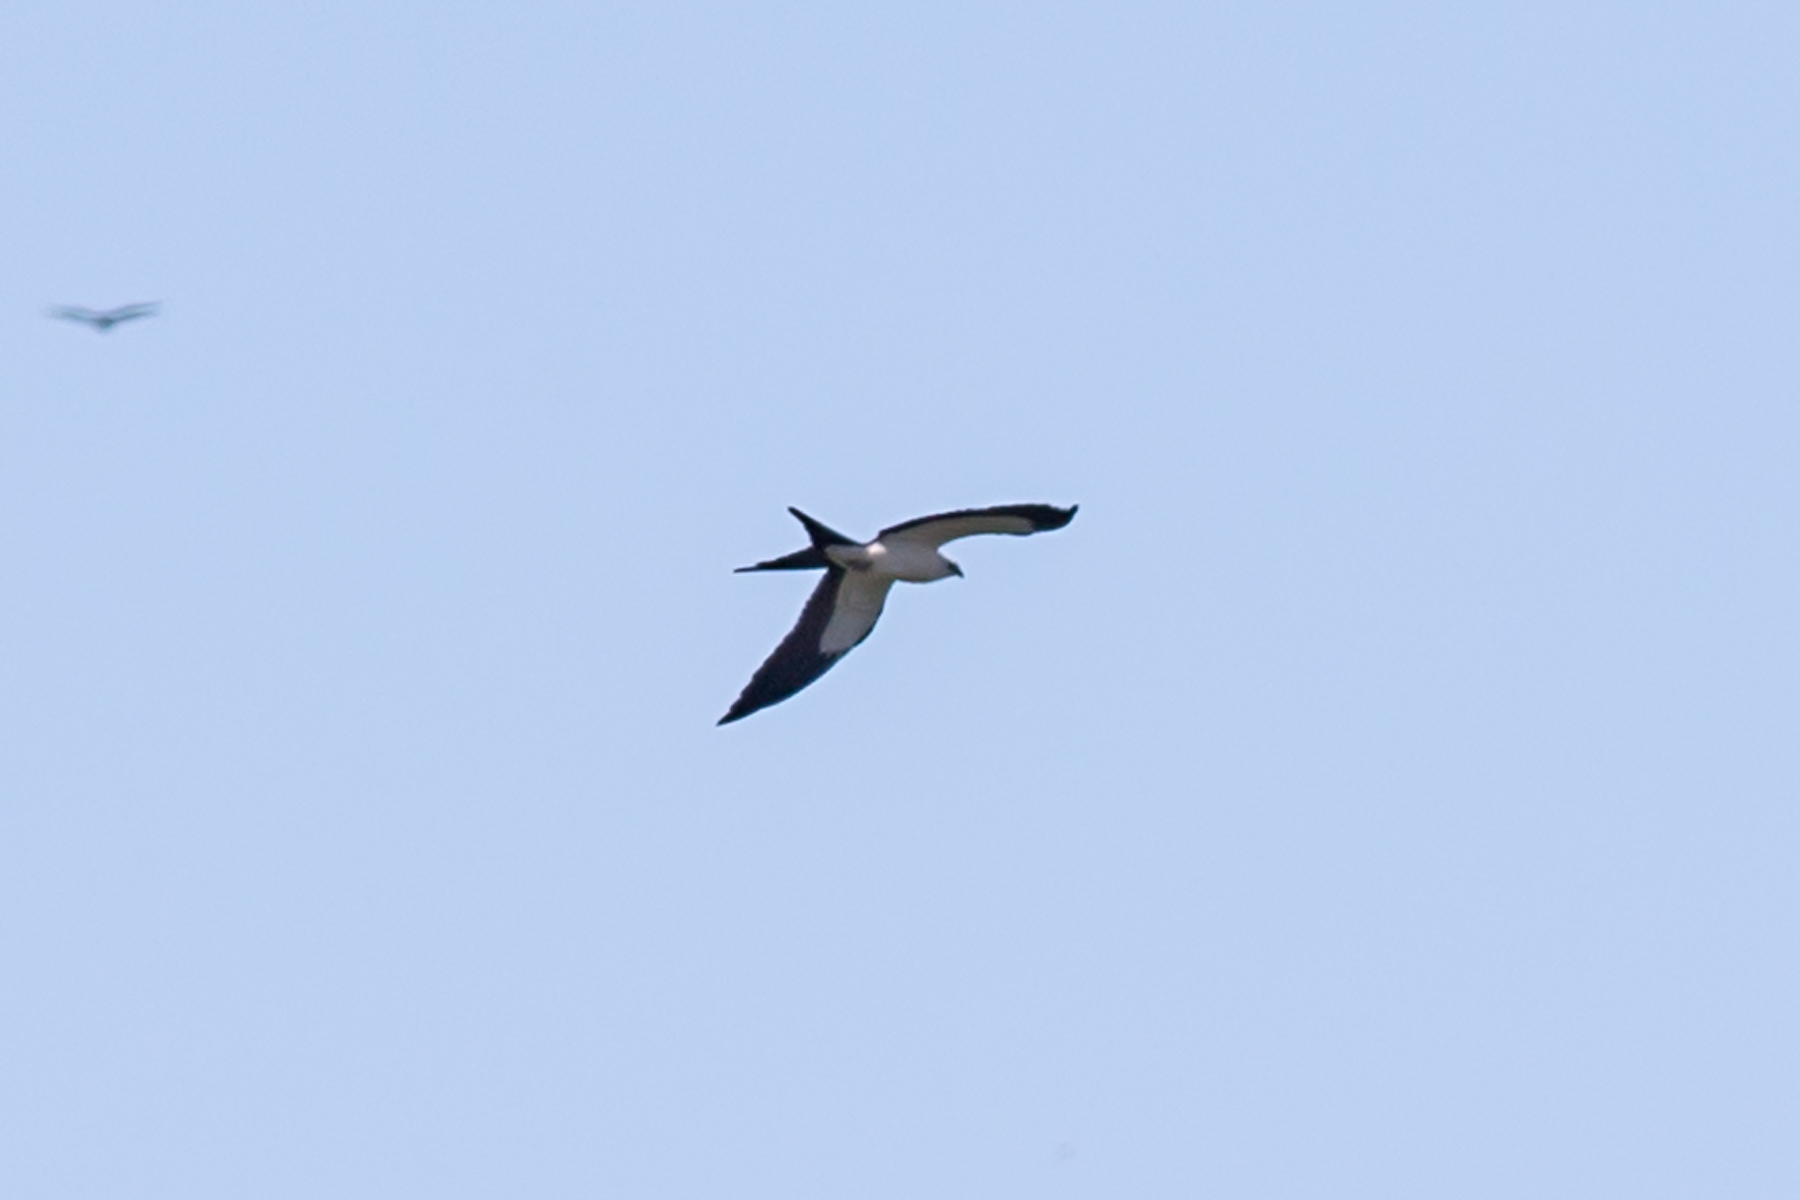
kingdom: Animalia
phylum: Chordata
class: Aves
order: Accipitriformes
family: Accipitridae
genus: Elanoides
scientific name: Elanoides forficatus
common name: Swallow-tailed kite
